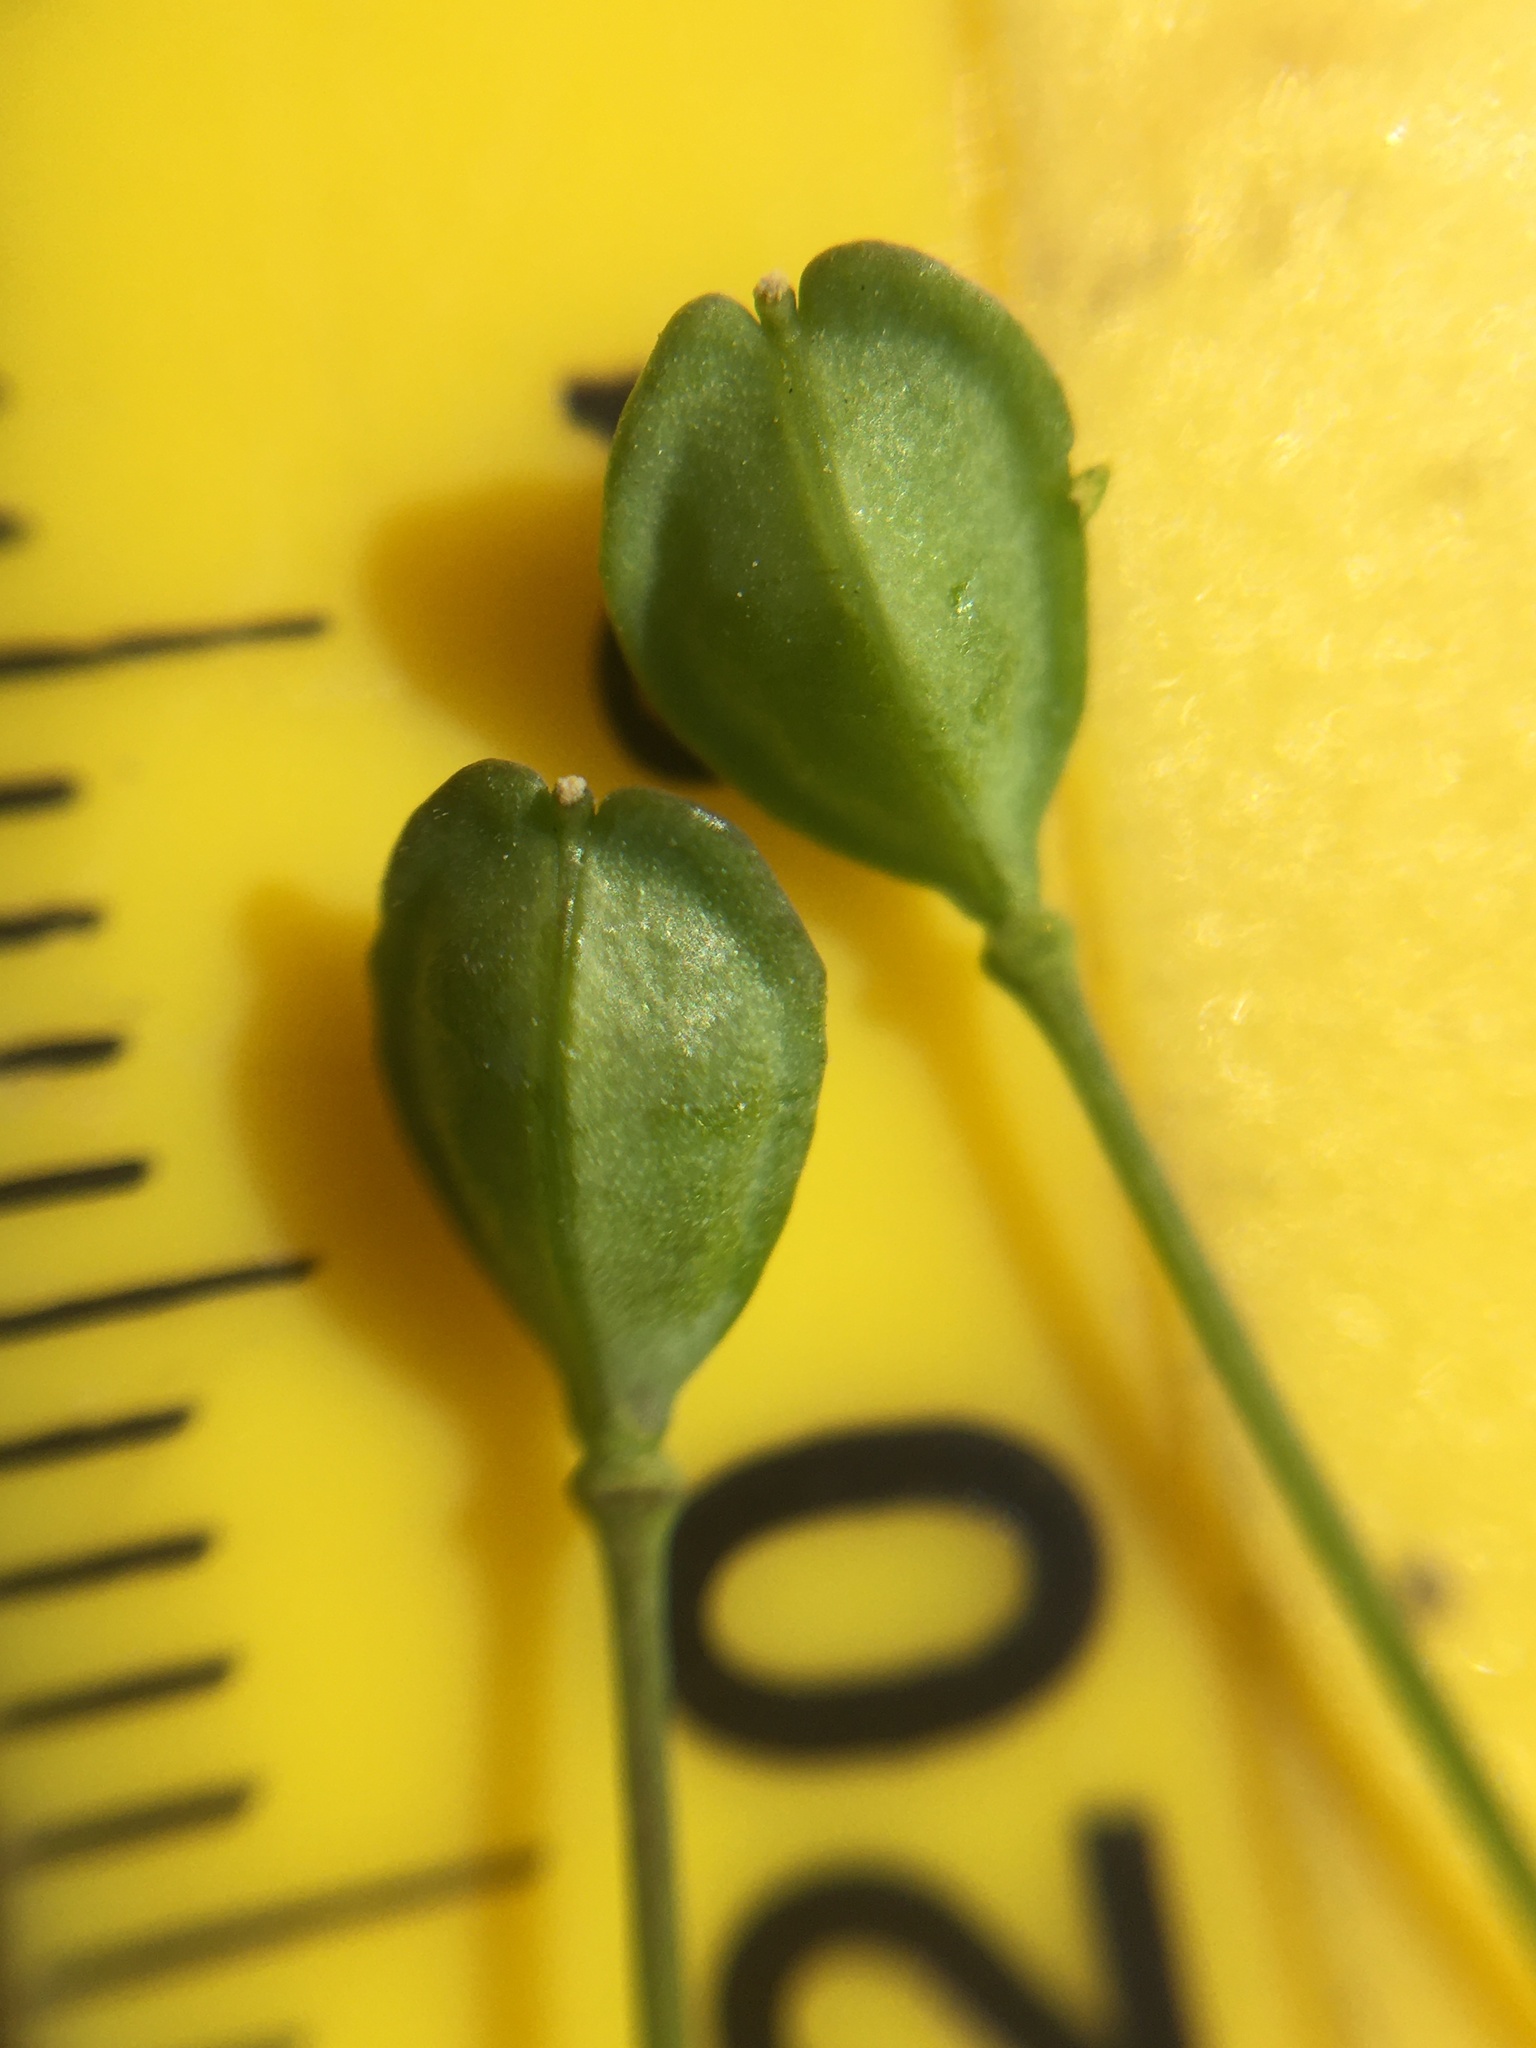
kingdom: Plantae
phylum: Tracheophyta
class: Magnoliopsida
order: Brassicales
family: Brassicaceae
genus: Mummenhoffia
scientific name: Mummenhoffia alliacea
